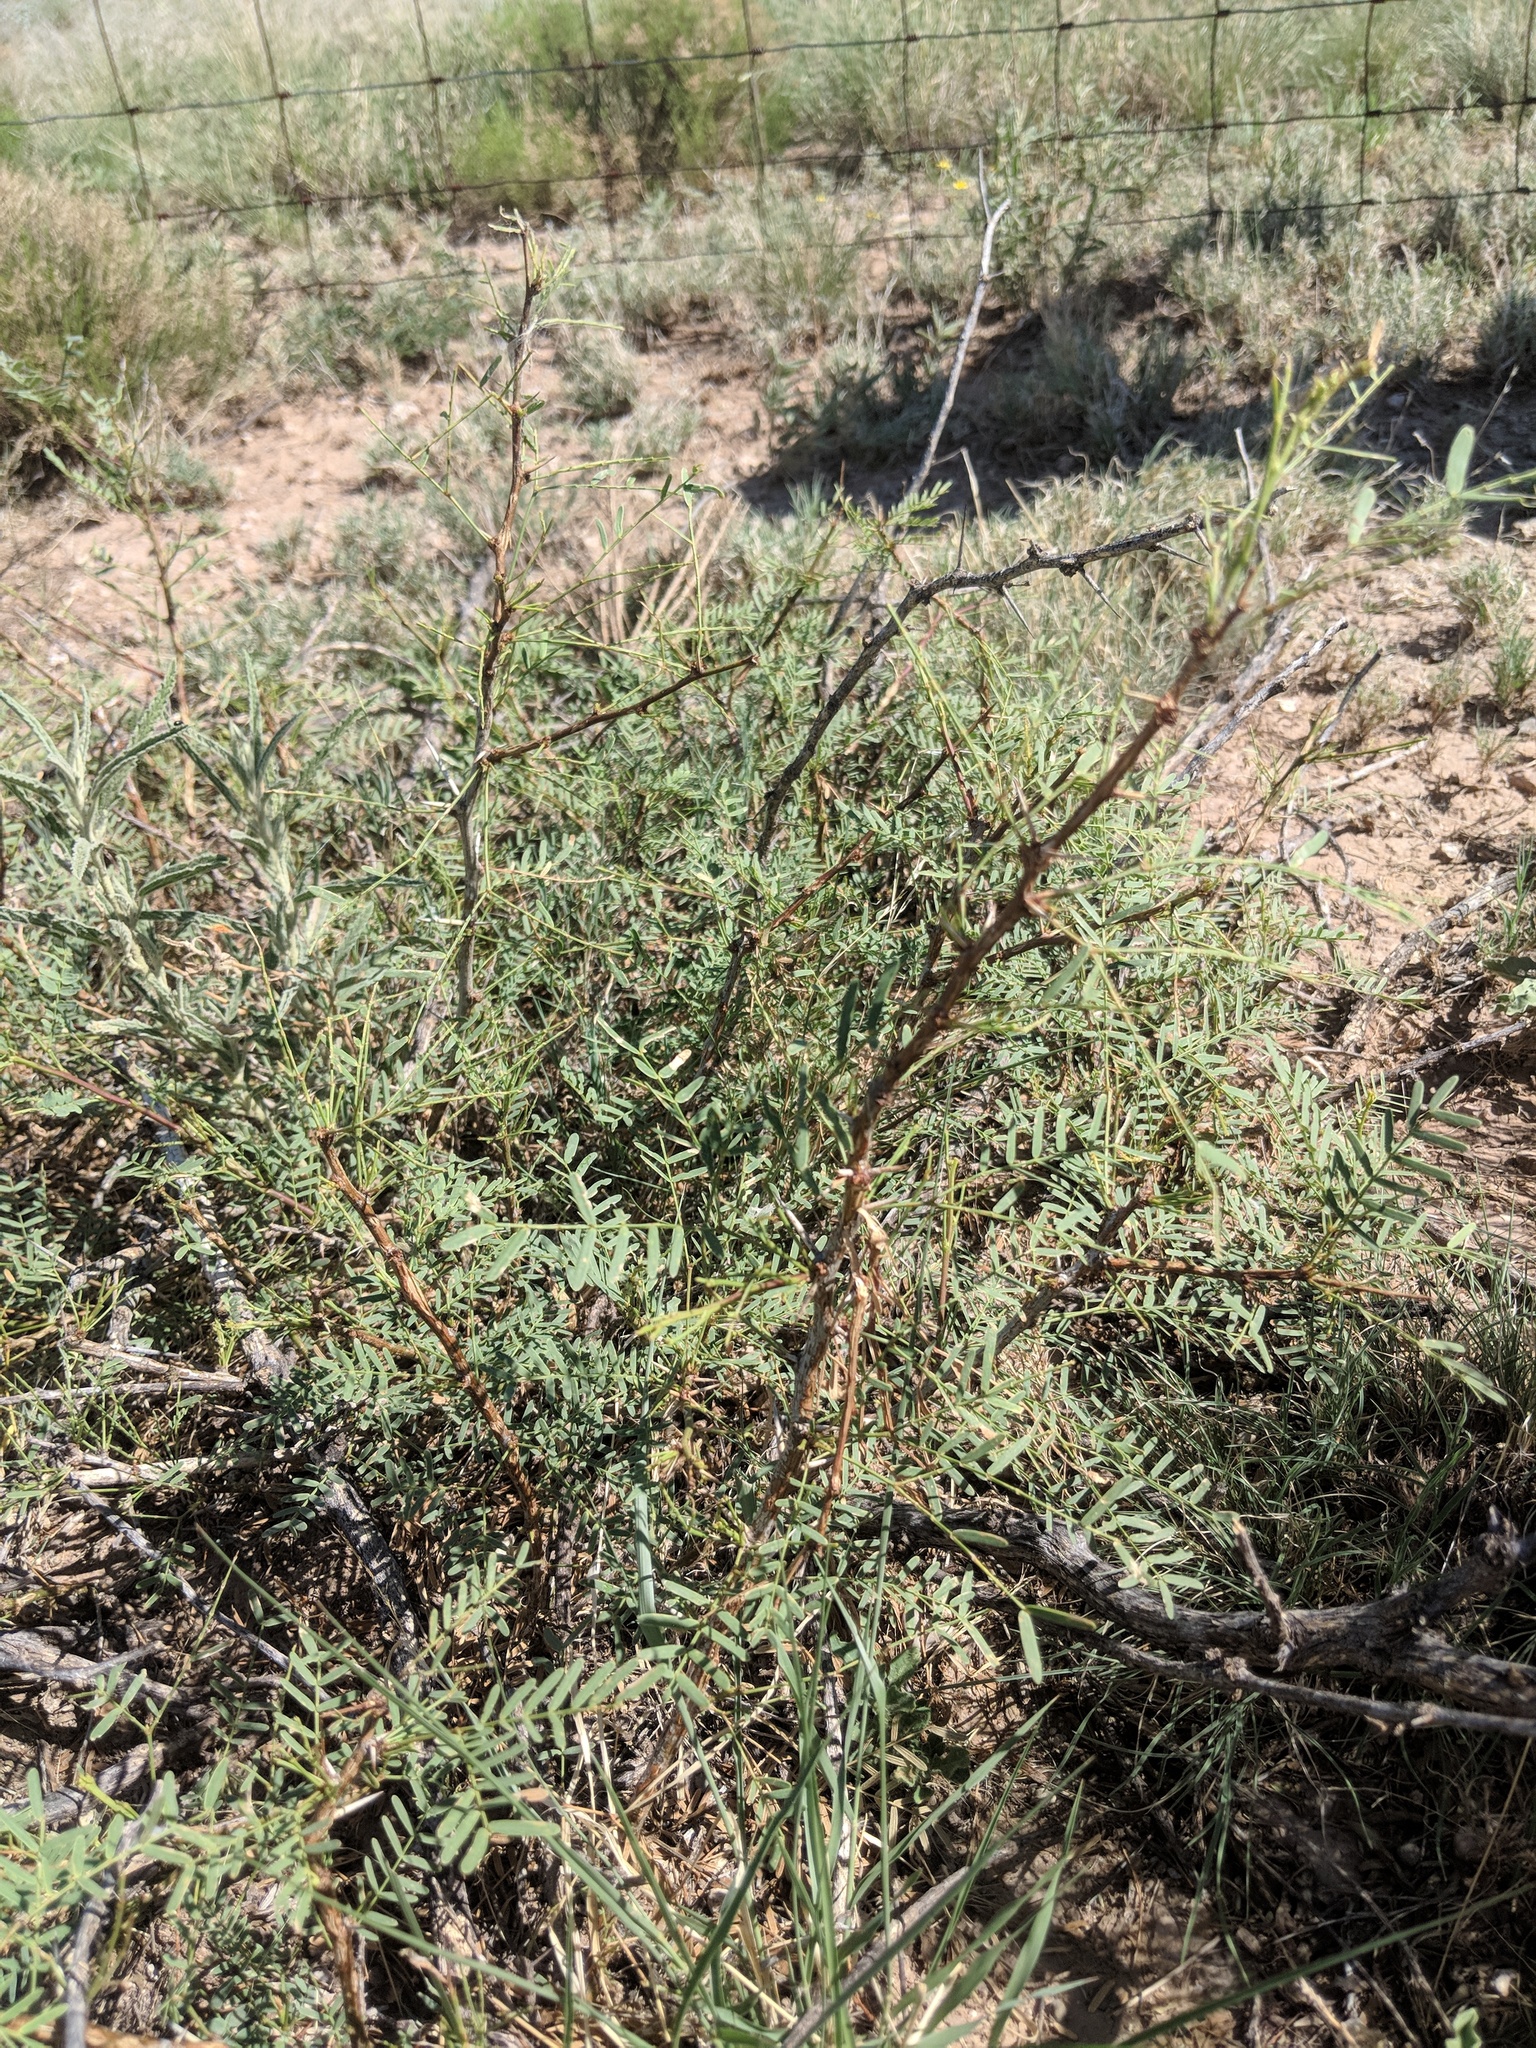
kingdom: Plantae
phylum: Tracheophyta
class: Magnoliopsida
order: Fabales
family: Fabaceae
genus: Prosopis
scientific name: Prosopis glandulosa
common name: Honey mesquite
